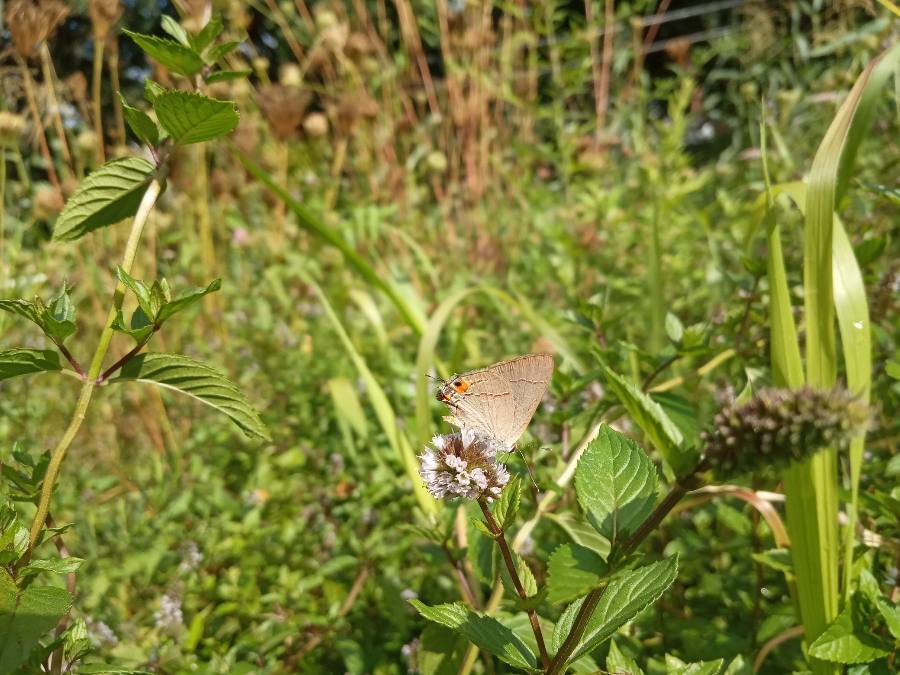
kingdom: Animalia
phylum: Arthropoda
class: Insecta
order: Lepidoptera
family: Lycaenidae
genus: Strymon
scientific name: Strymon melinus
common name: Gray hairstreak
